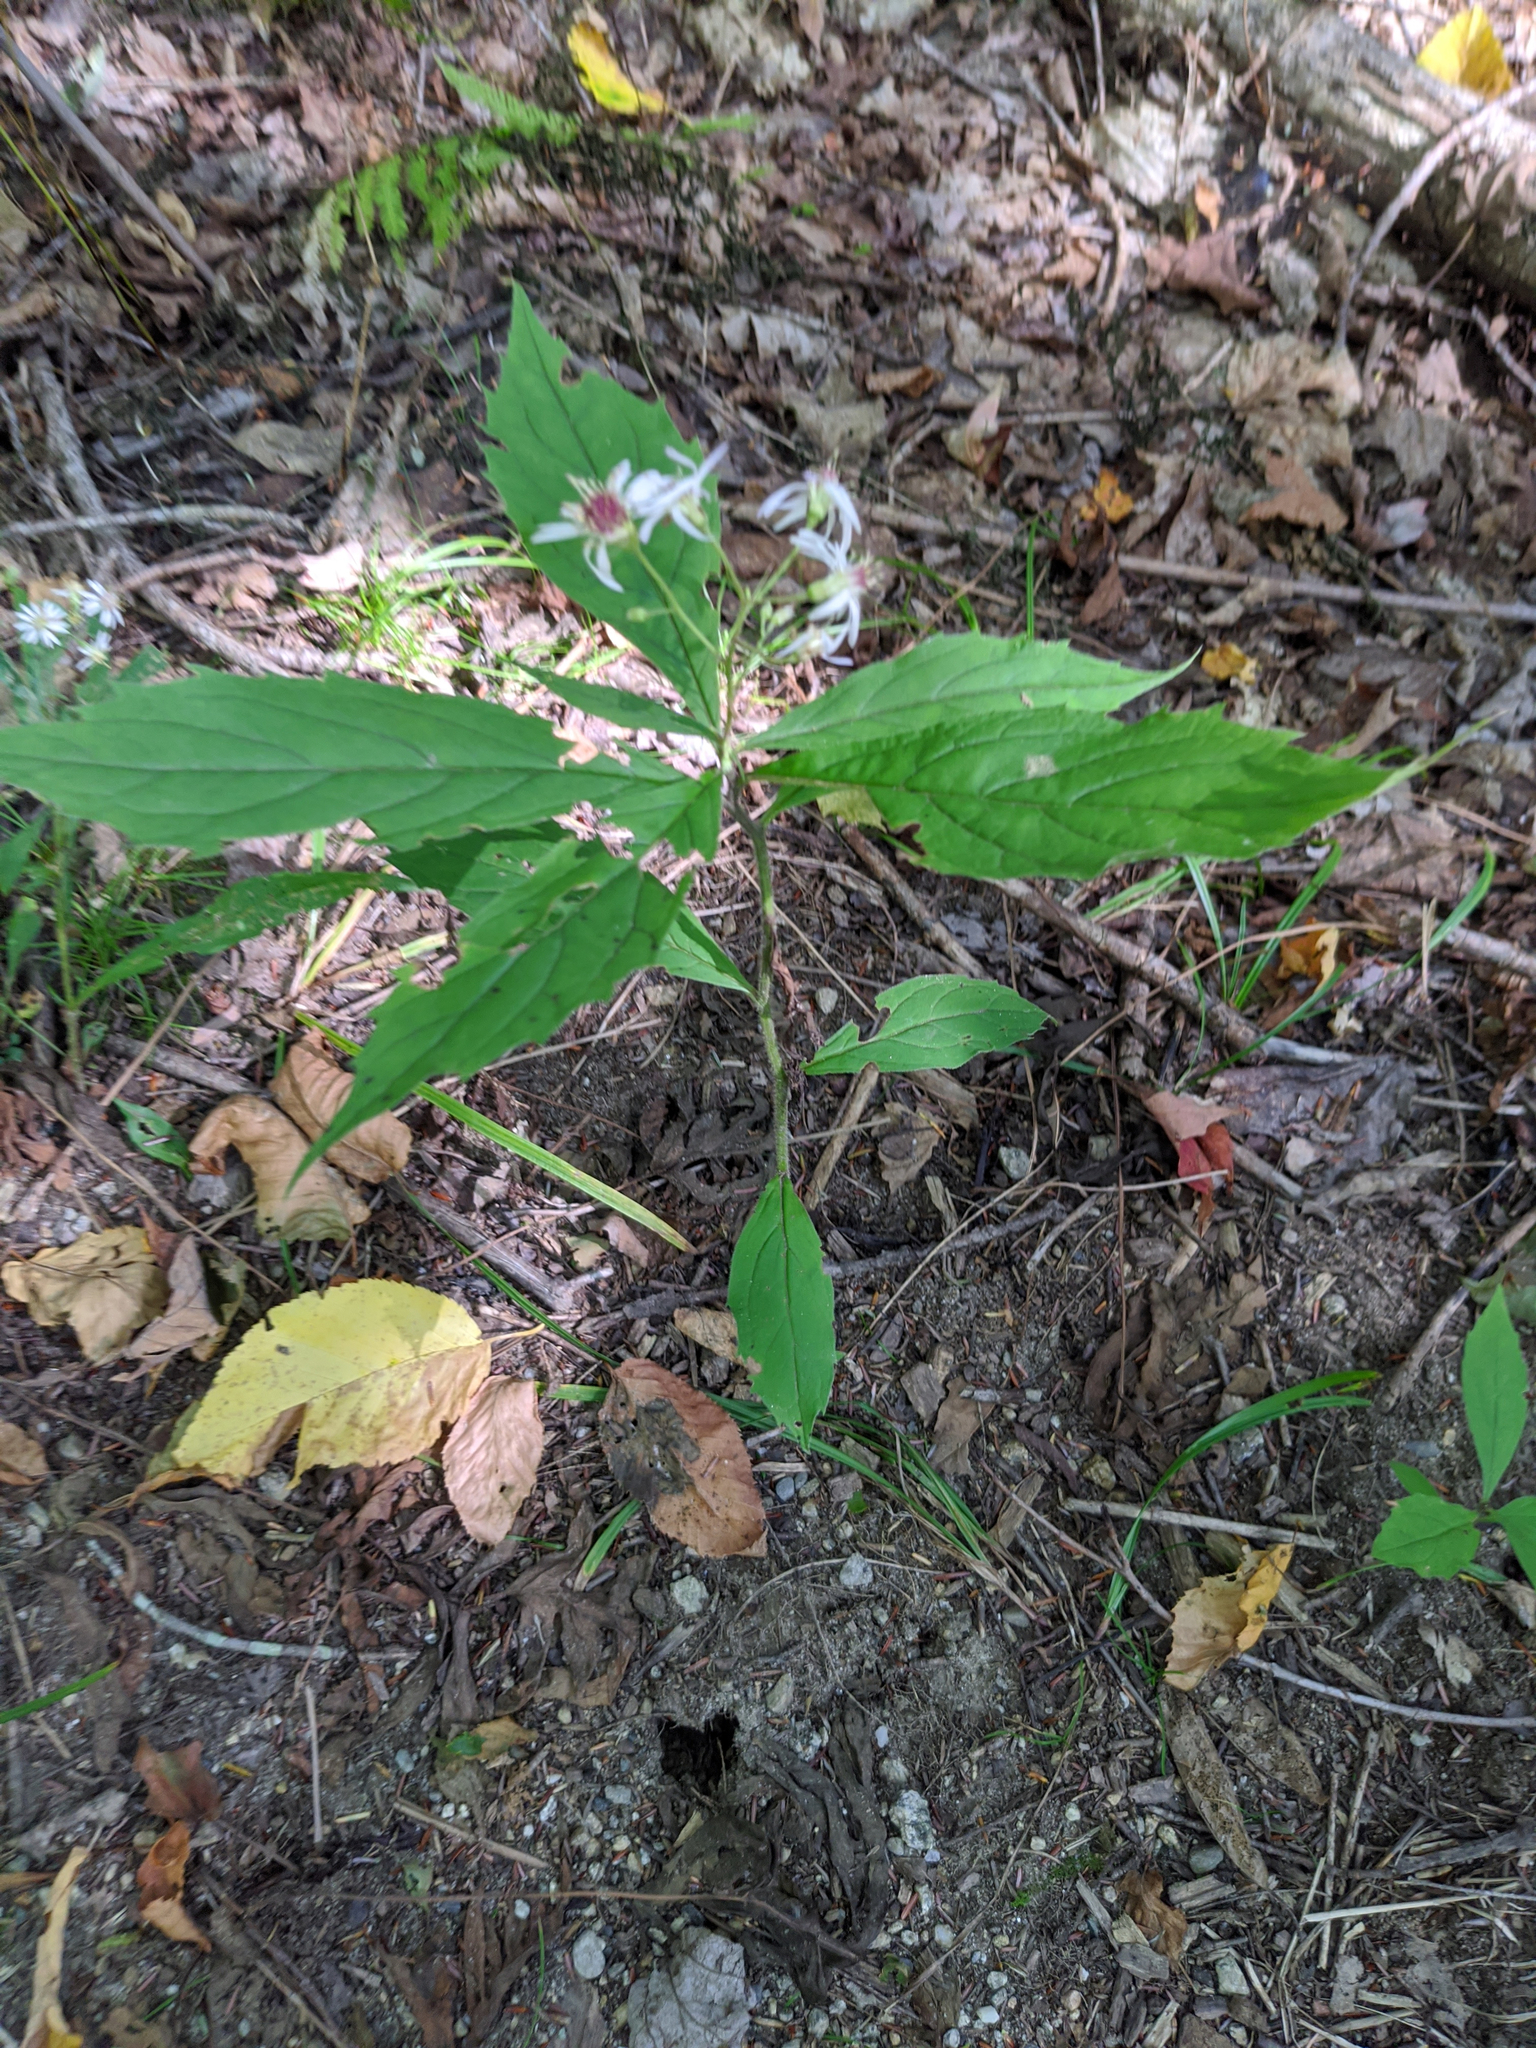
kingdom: Plantae
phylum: Tracheophyta
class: Magnoliopsida
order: Asterales
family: Asteraceae
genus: Oclemena
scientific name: Oclemena acuminata
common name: Mountain aster
